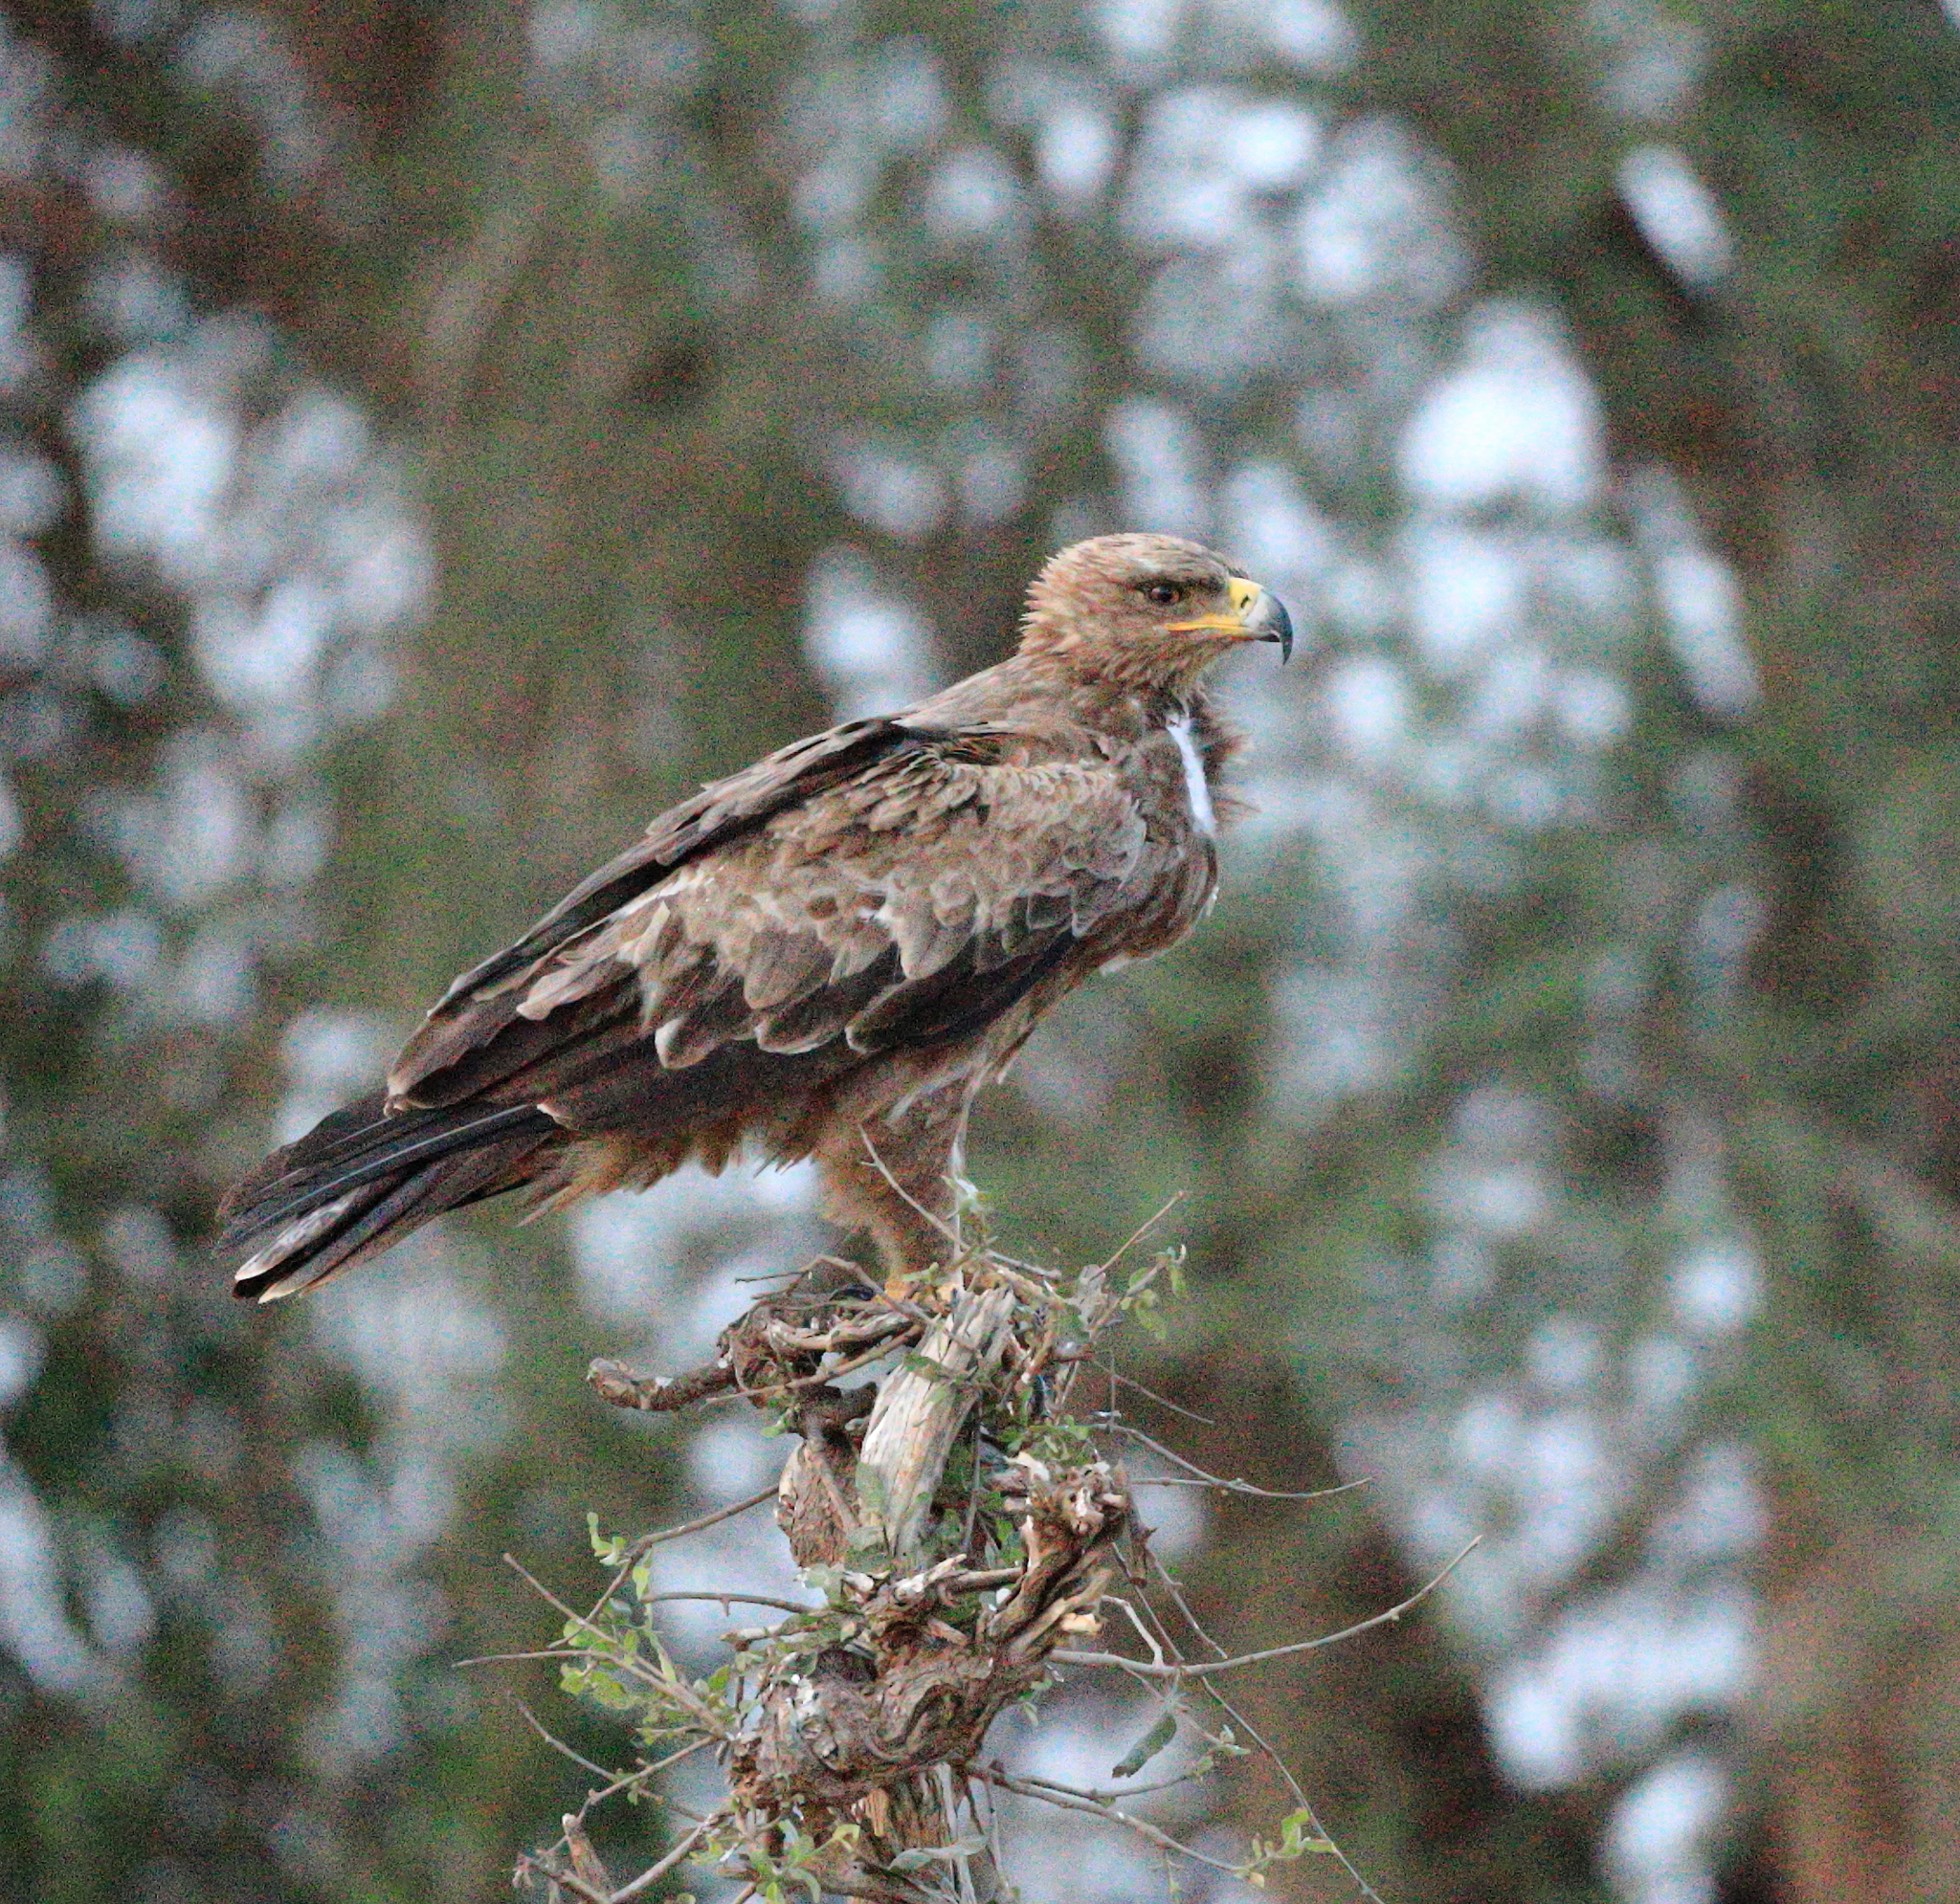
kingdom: Animalia
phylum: Chordata
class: Aves
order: Accipitriformes
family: Accipitridae
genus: Aquila
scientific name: Aquila rapax
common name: Tawny eagle
